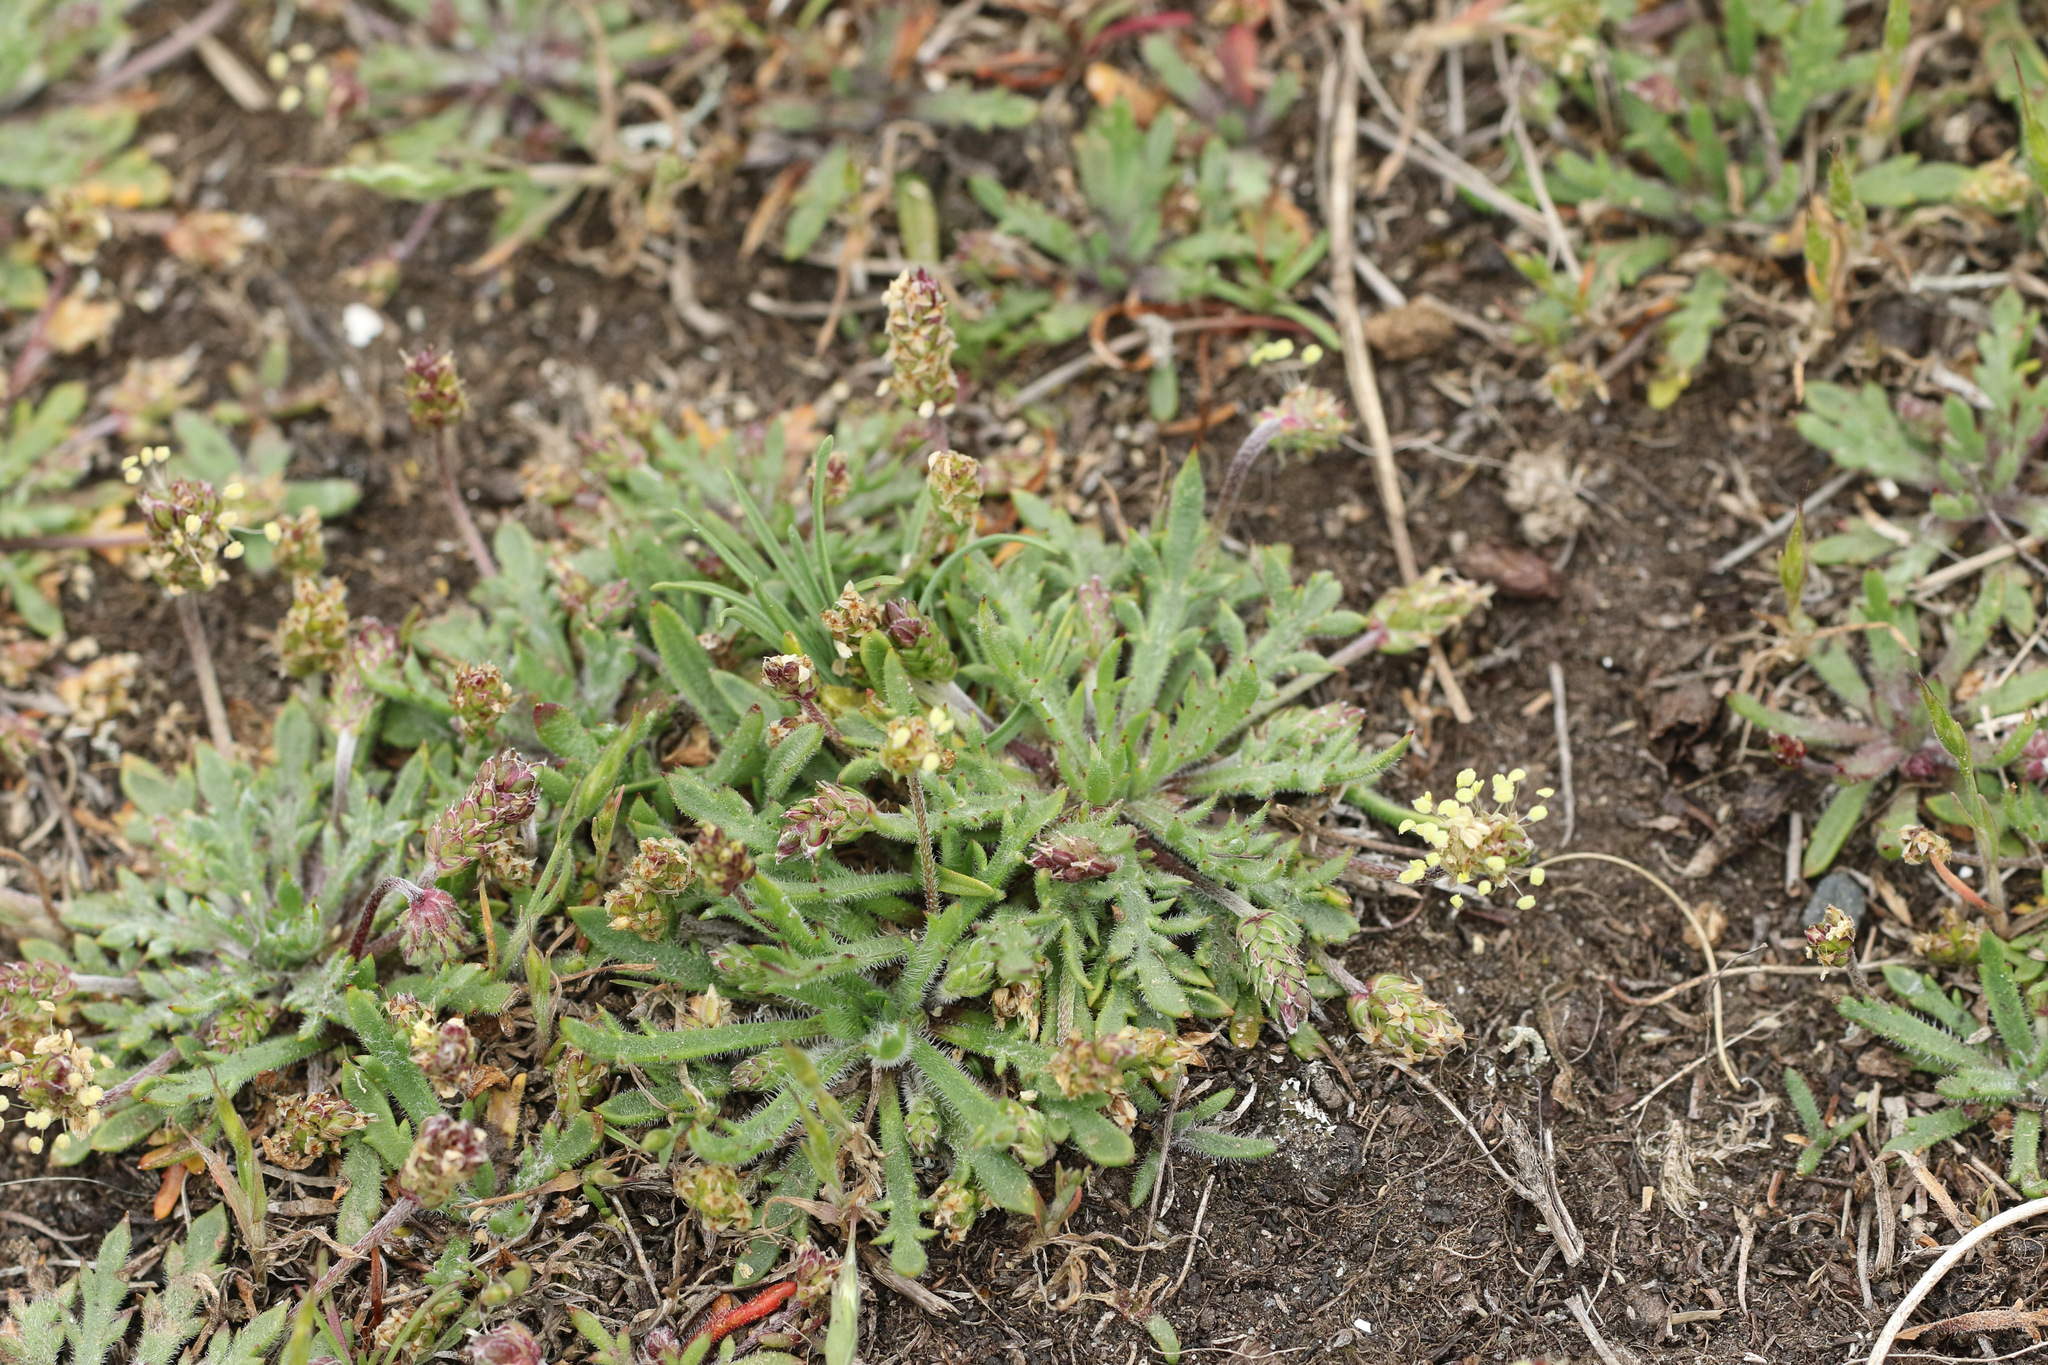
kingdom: Plantae
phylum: Tracheophyta
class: Magnoliopsida
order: Lamiales
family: Plantaginaceae
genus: Plantago
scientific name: Plantago coronopus
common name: Buck's-horn plantain
